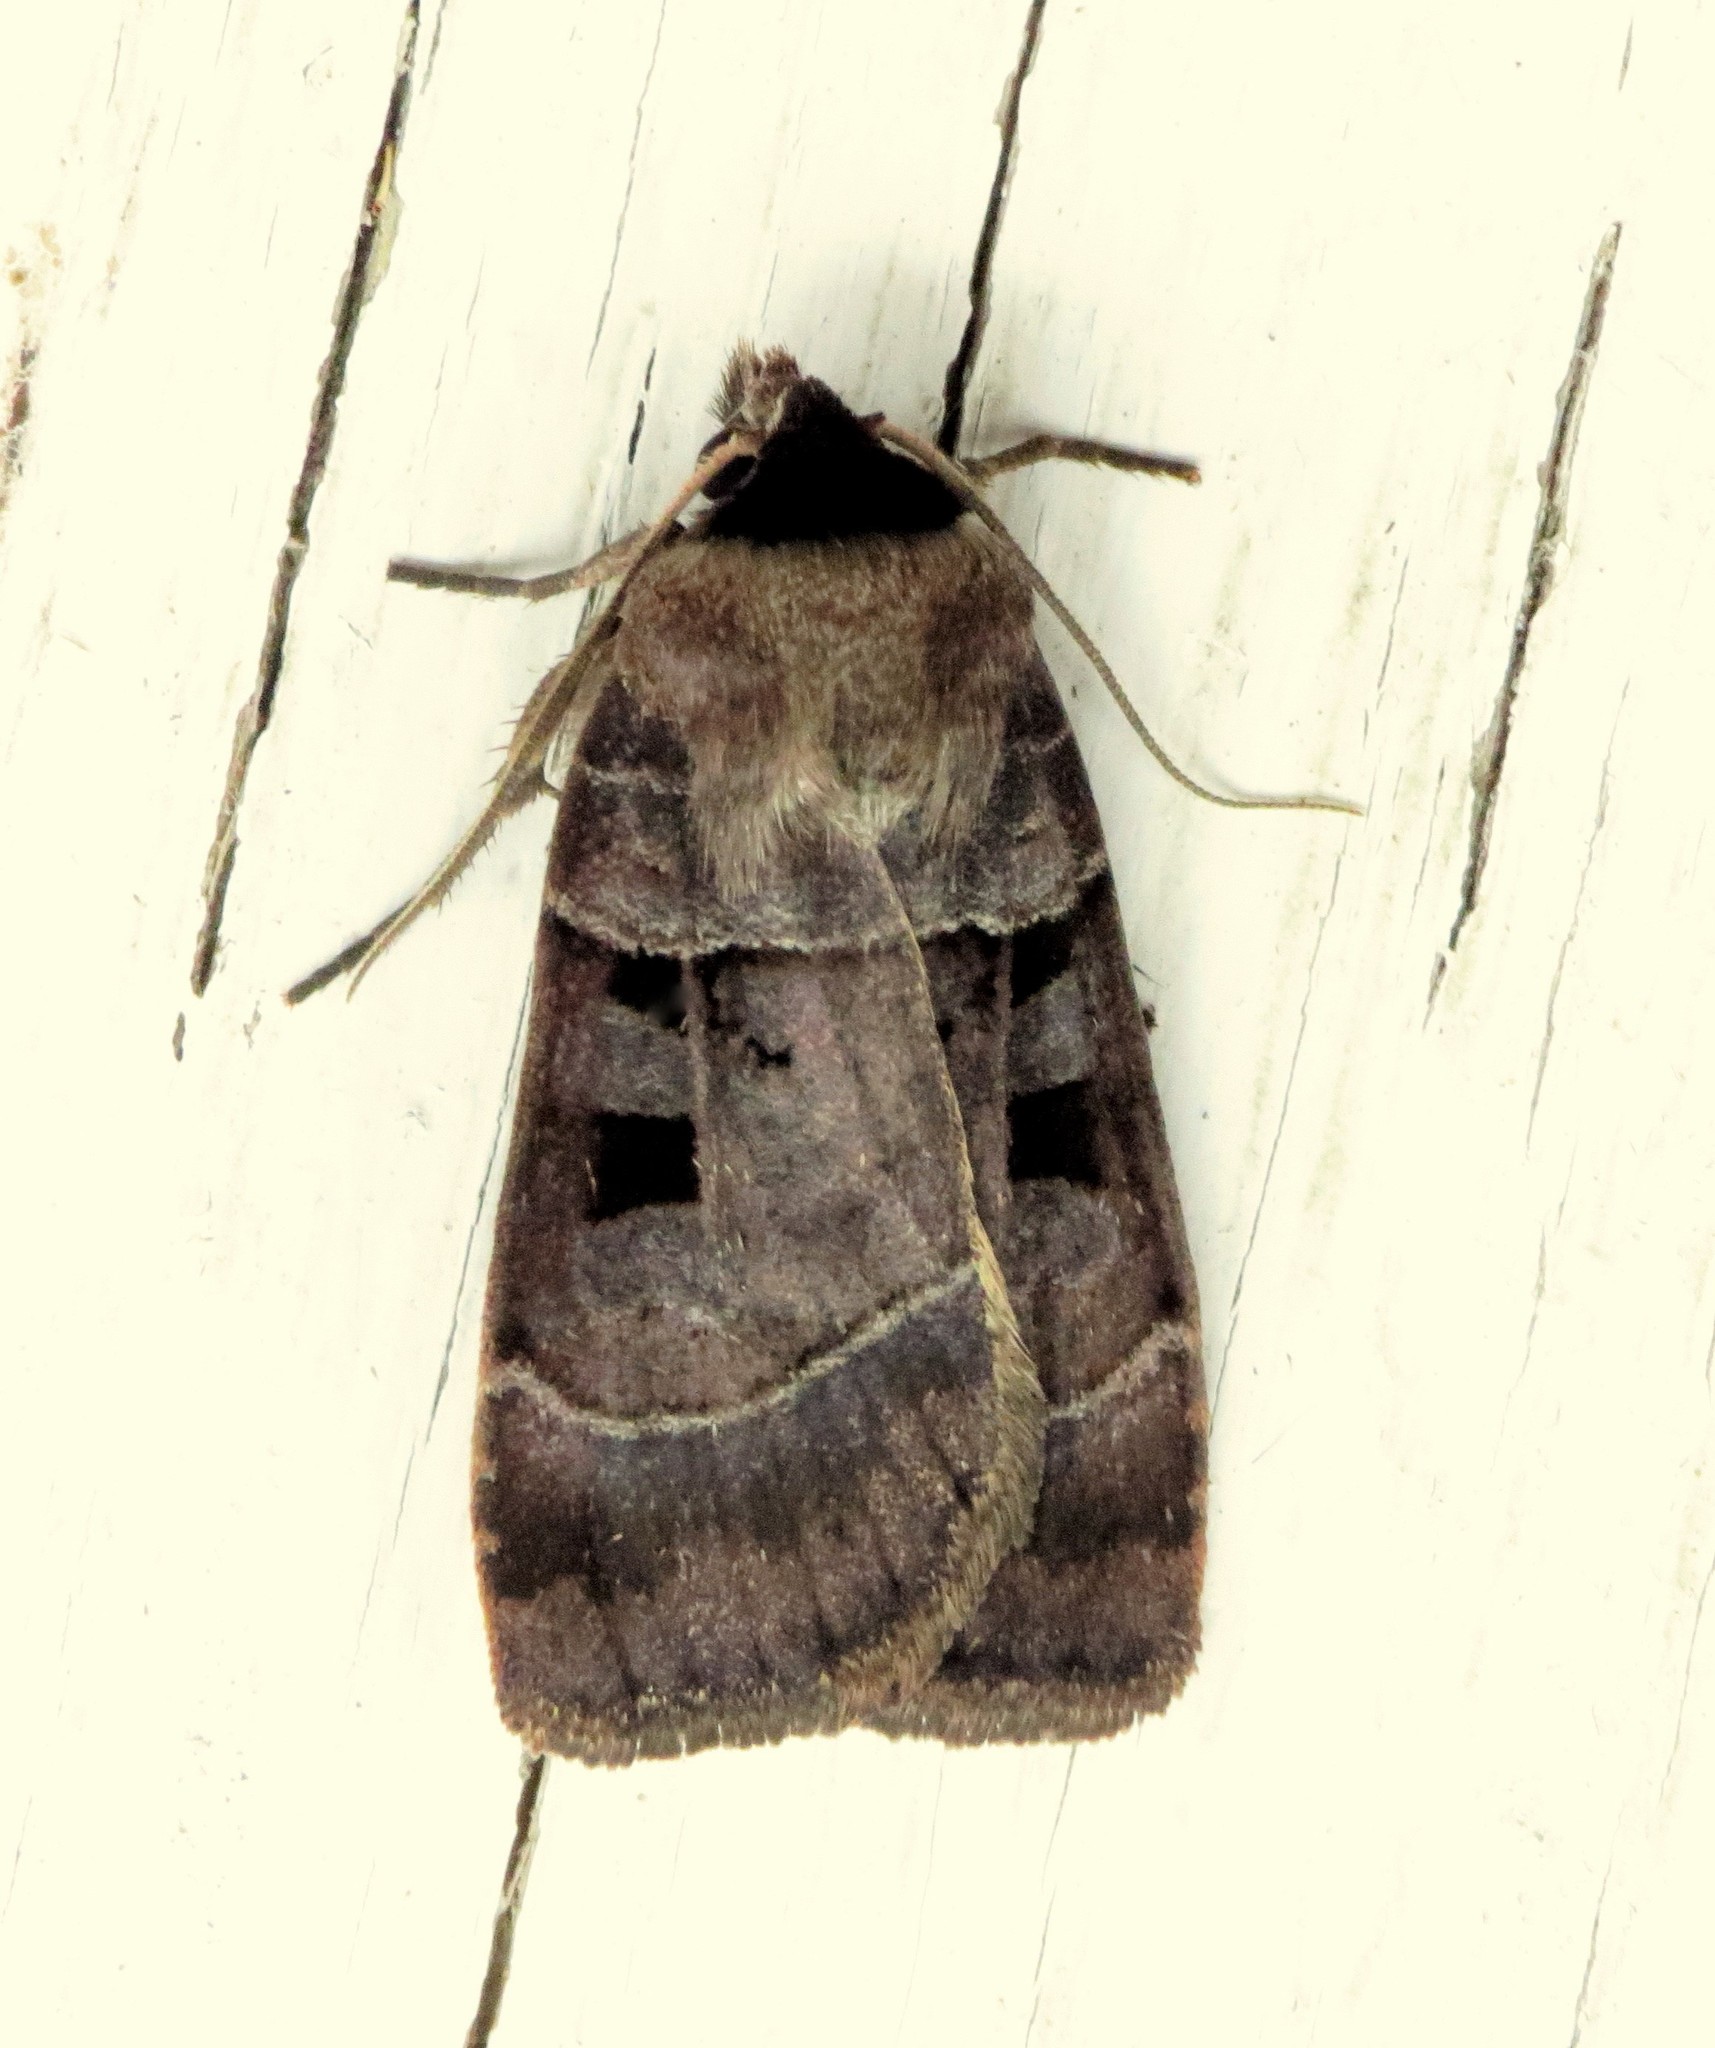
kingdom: Animalia
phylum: Arthropoda
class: Insecta
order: Lepidoptera
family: Noctuidae
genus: Agnorisma
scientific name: Agnorisma bugrai
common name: Collared dart
